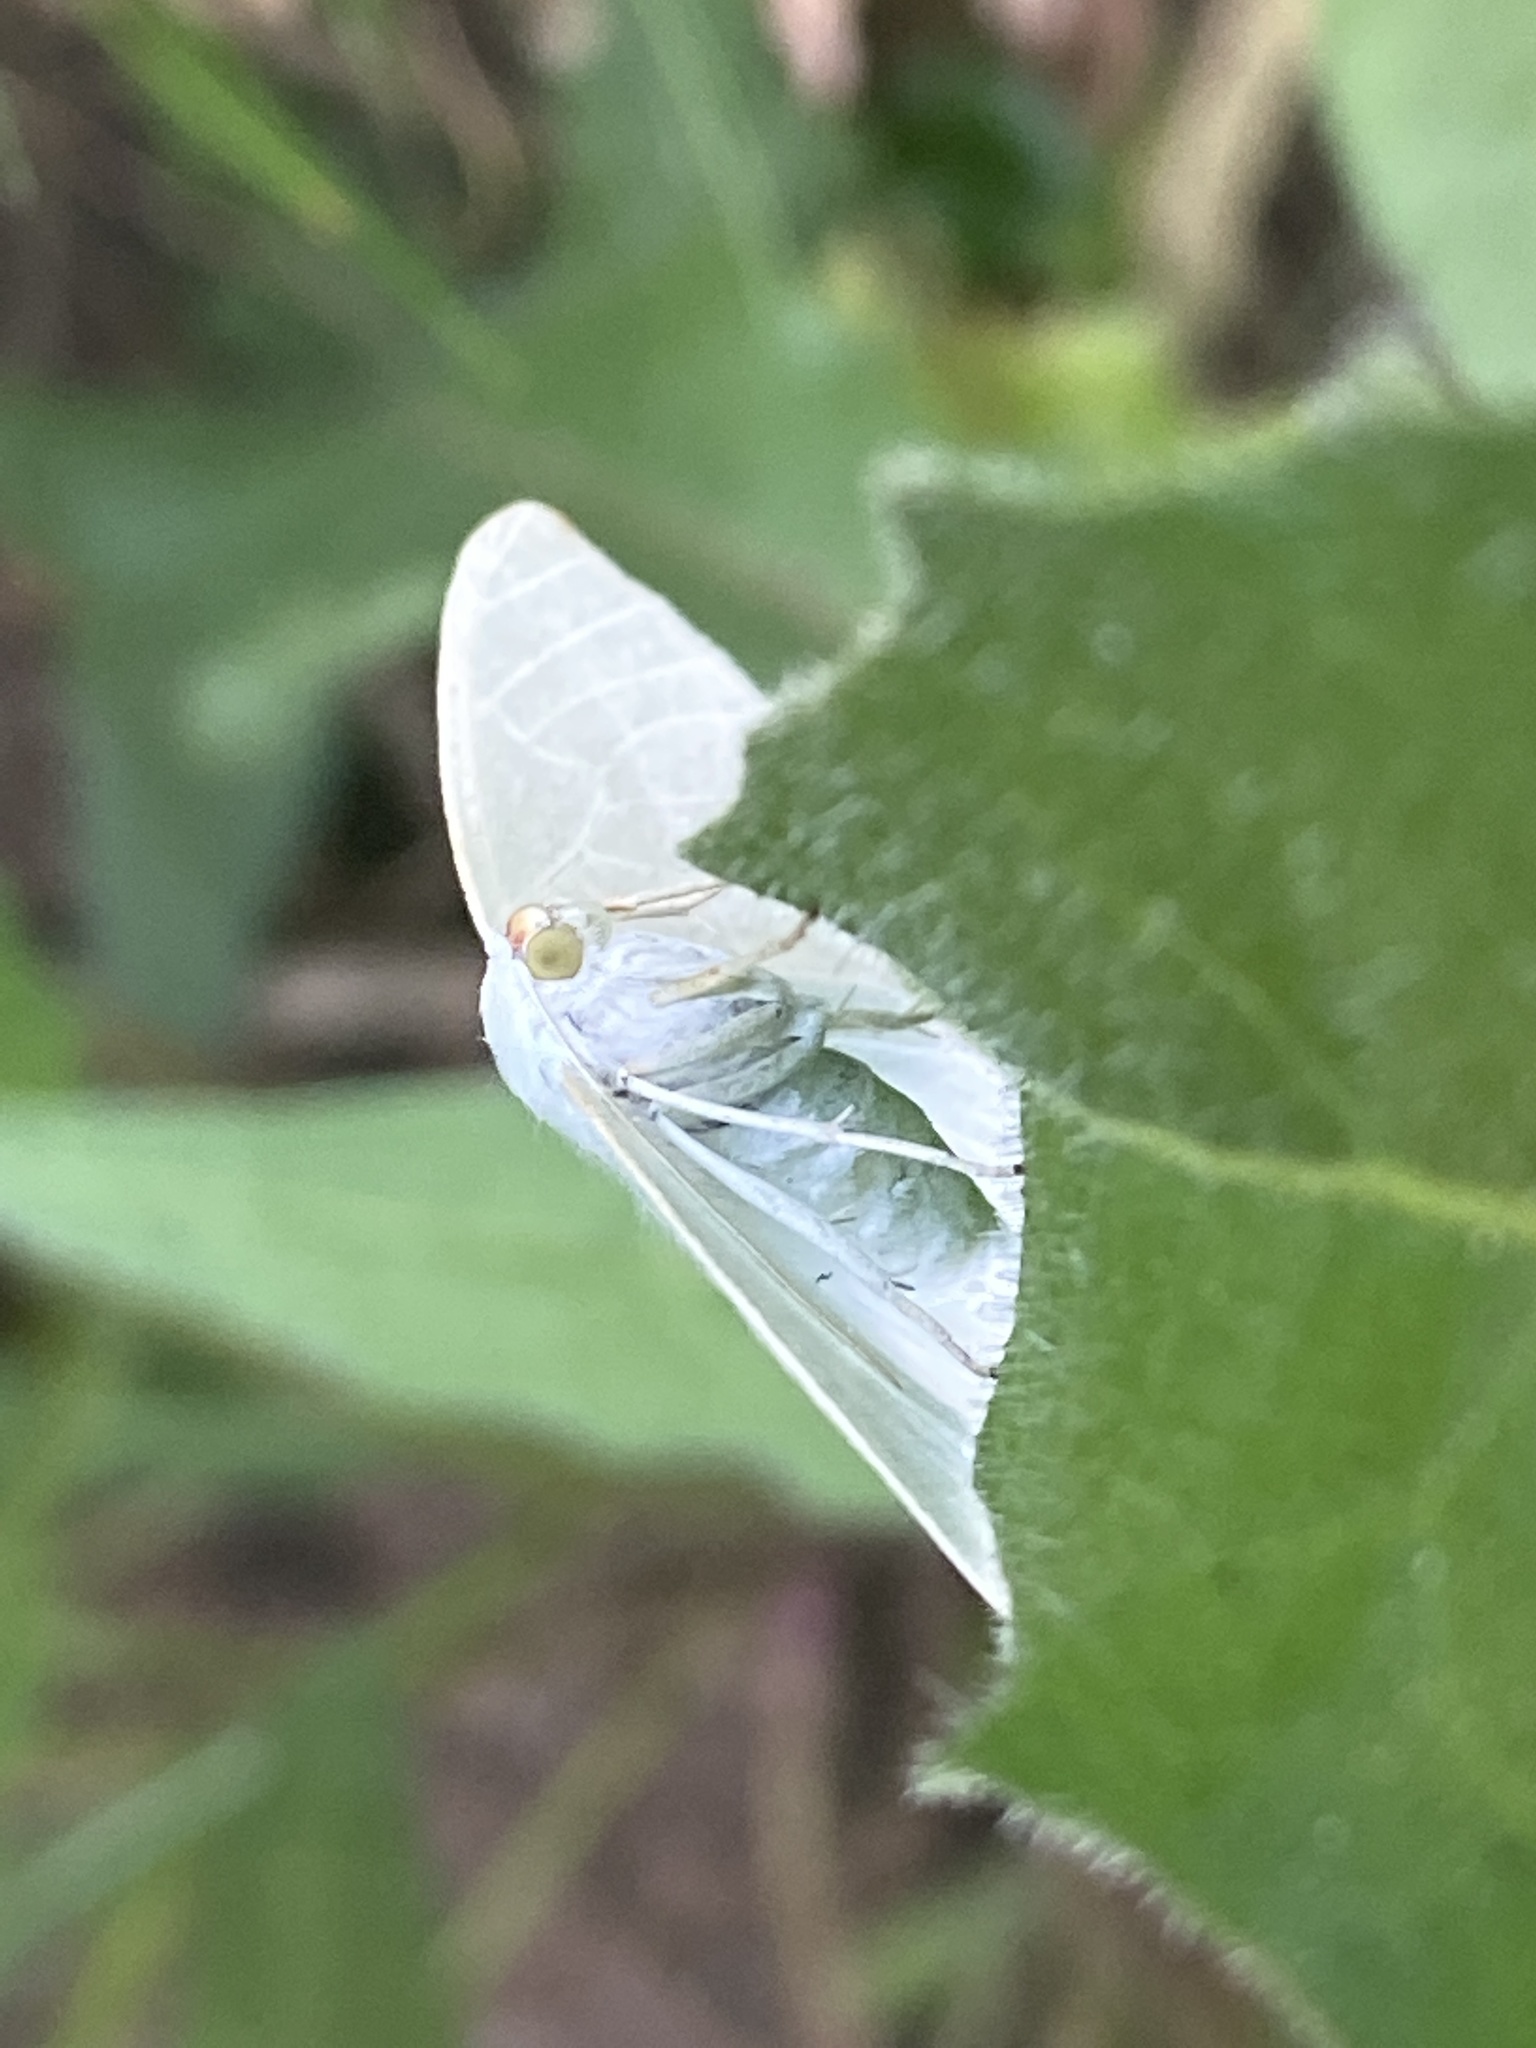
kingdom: Animalia
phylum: Arthropoda
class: Insecta
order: Lepidoptera
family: Geometridae
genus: Campaea
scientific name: Campaea margaritaria
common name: Light emerald
